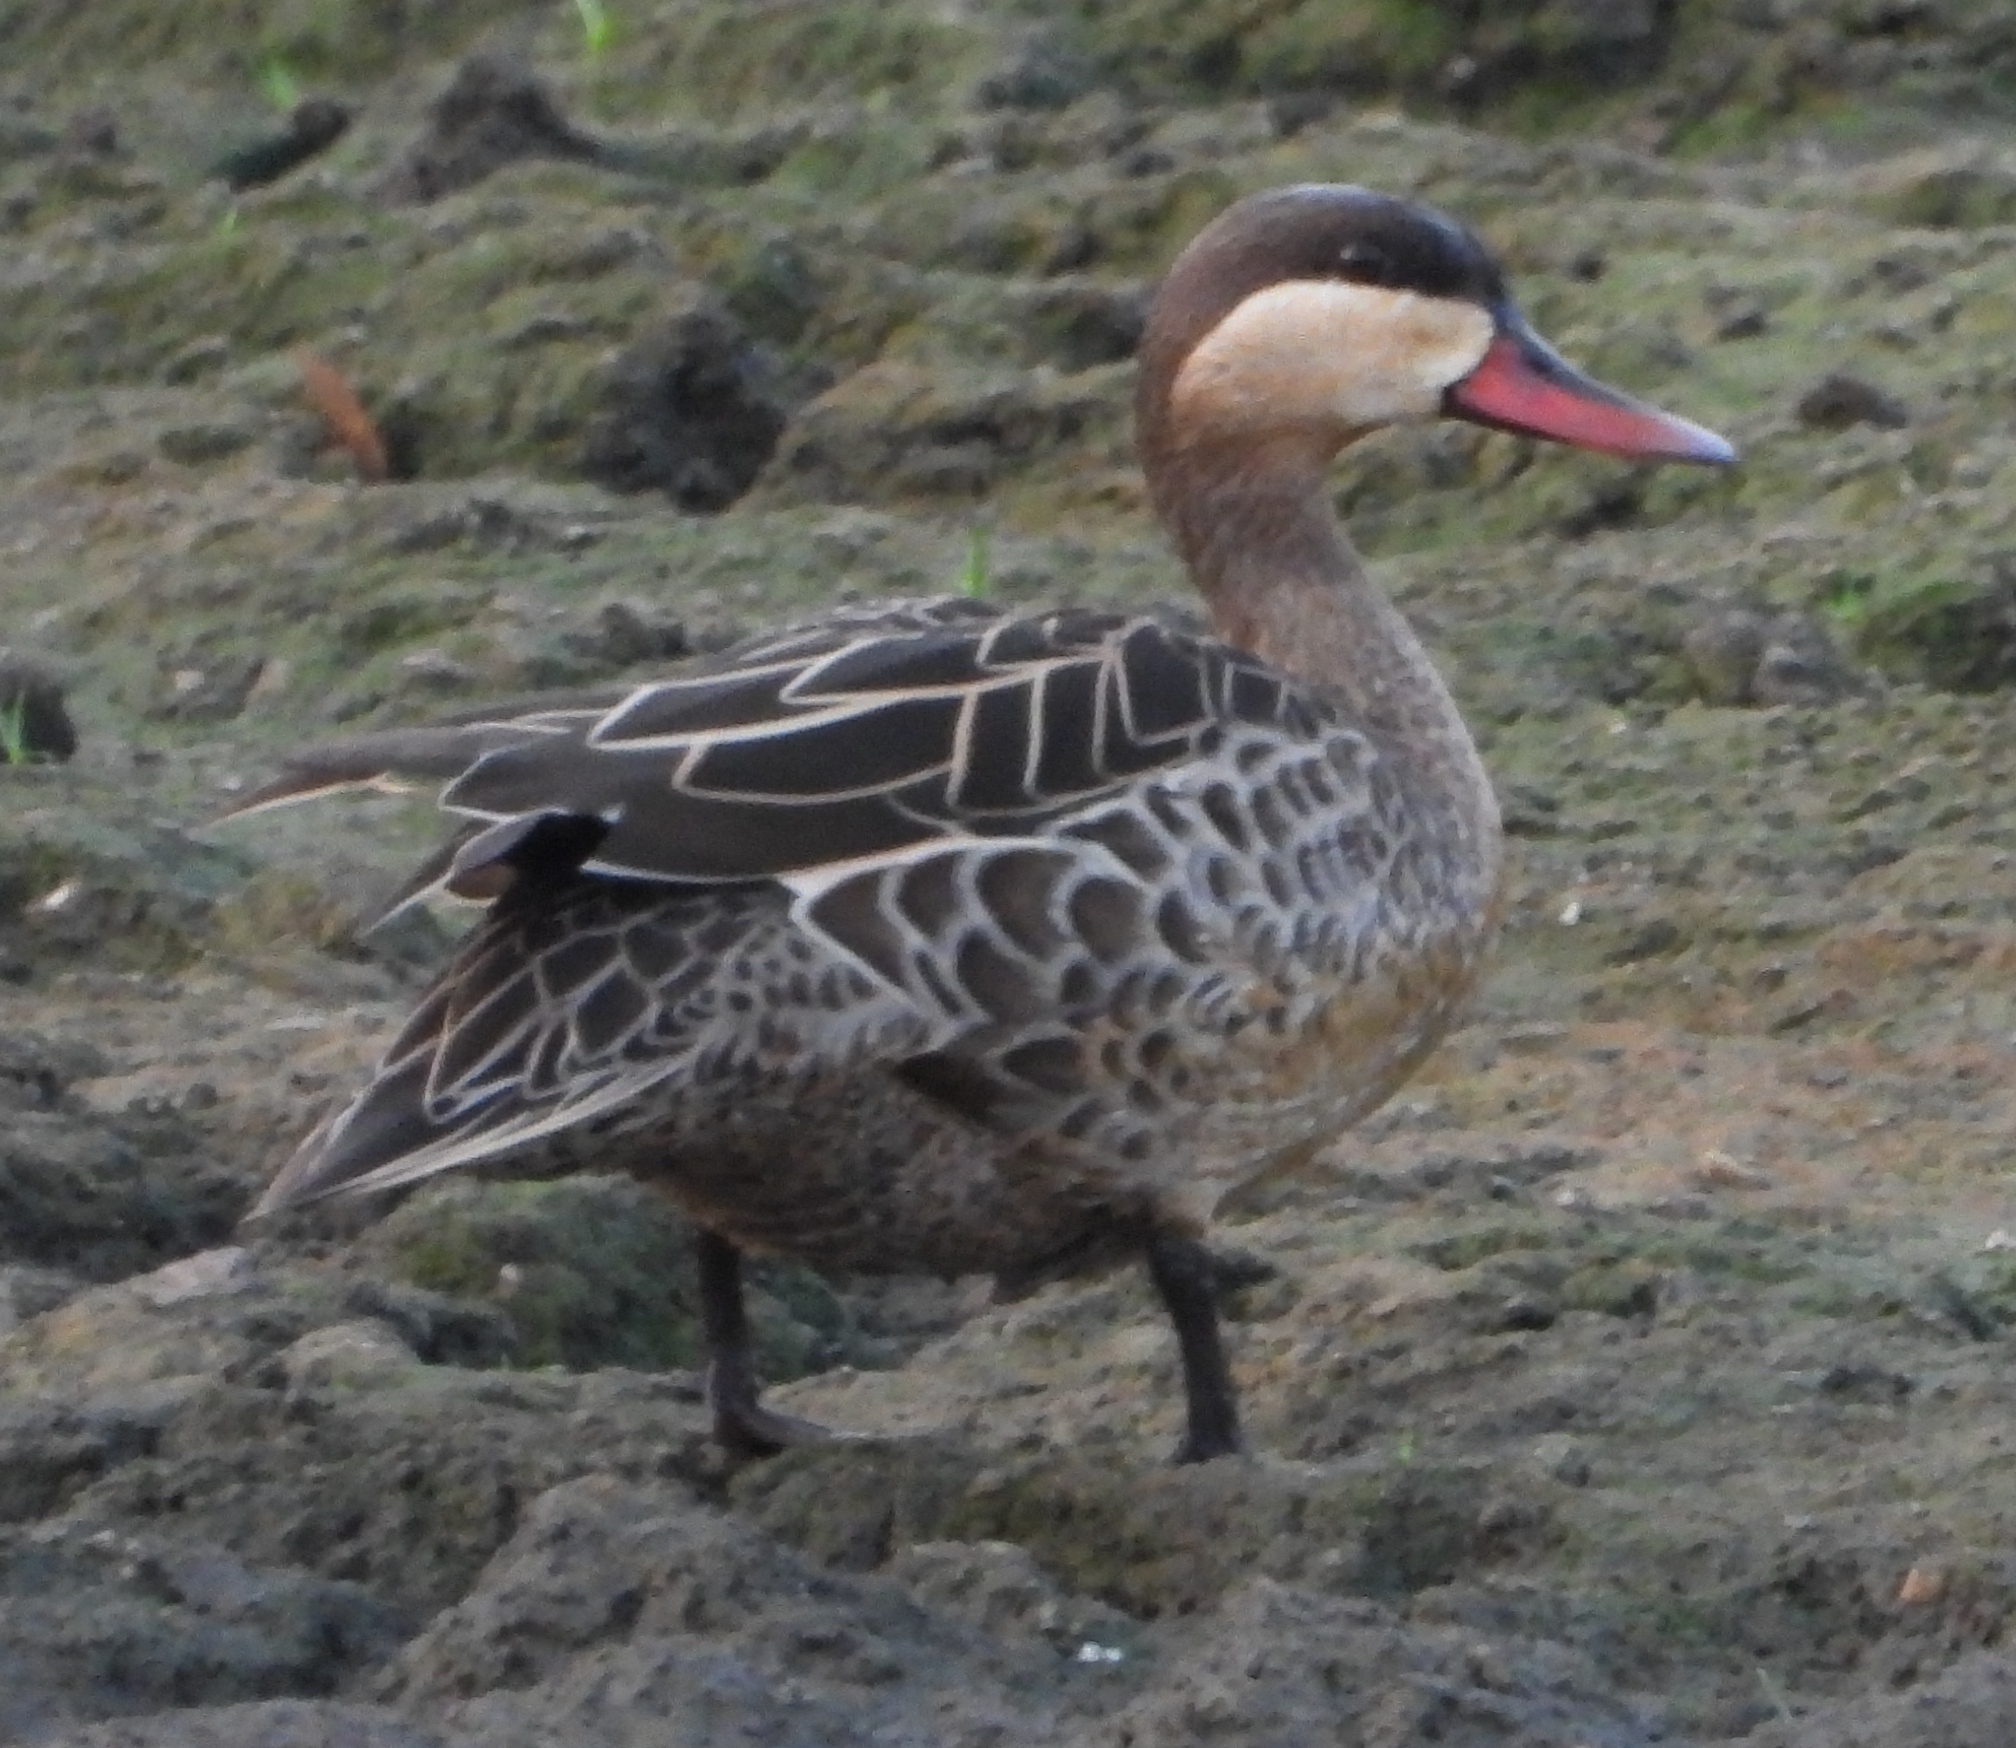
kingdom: Animalia
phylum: Chordata
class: Aves
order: Anseriformes
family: Anatidae
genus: Anas
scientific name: Anas erythrorhyncha
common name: Red-billed teal
